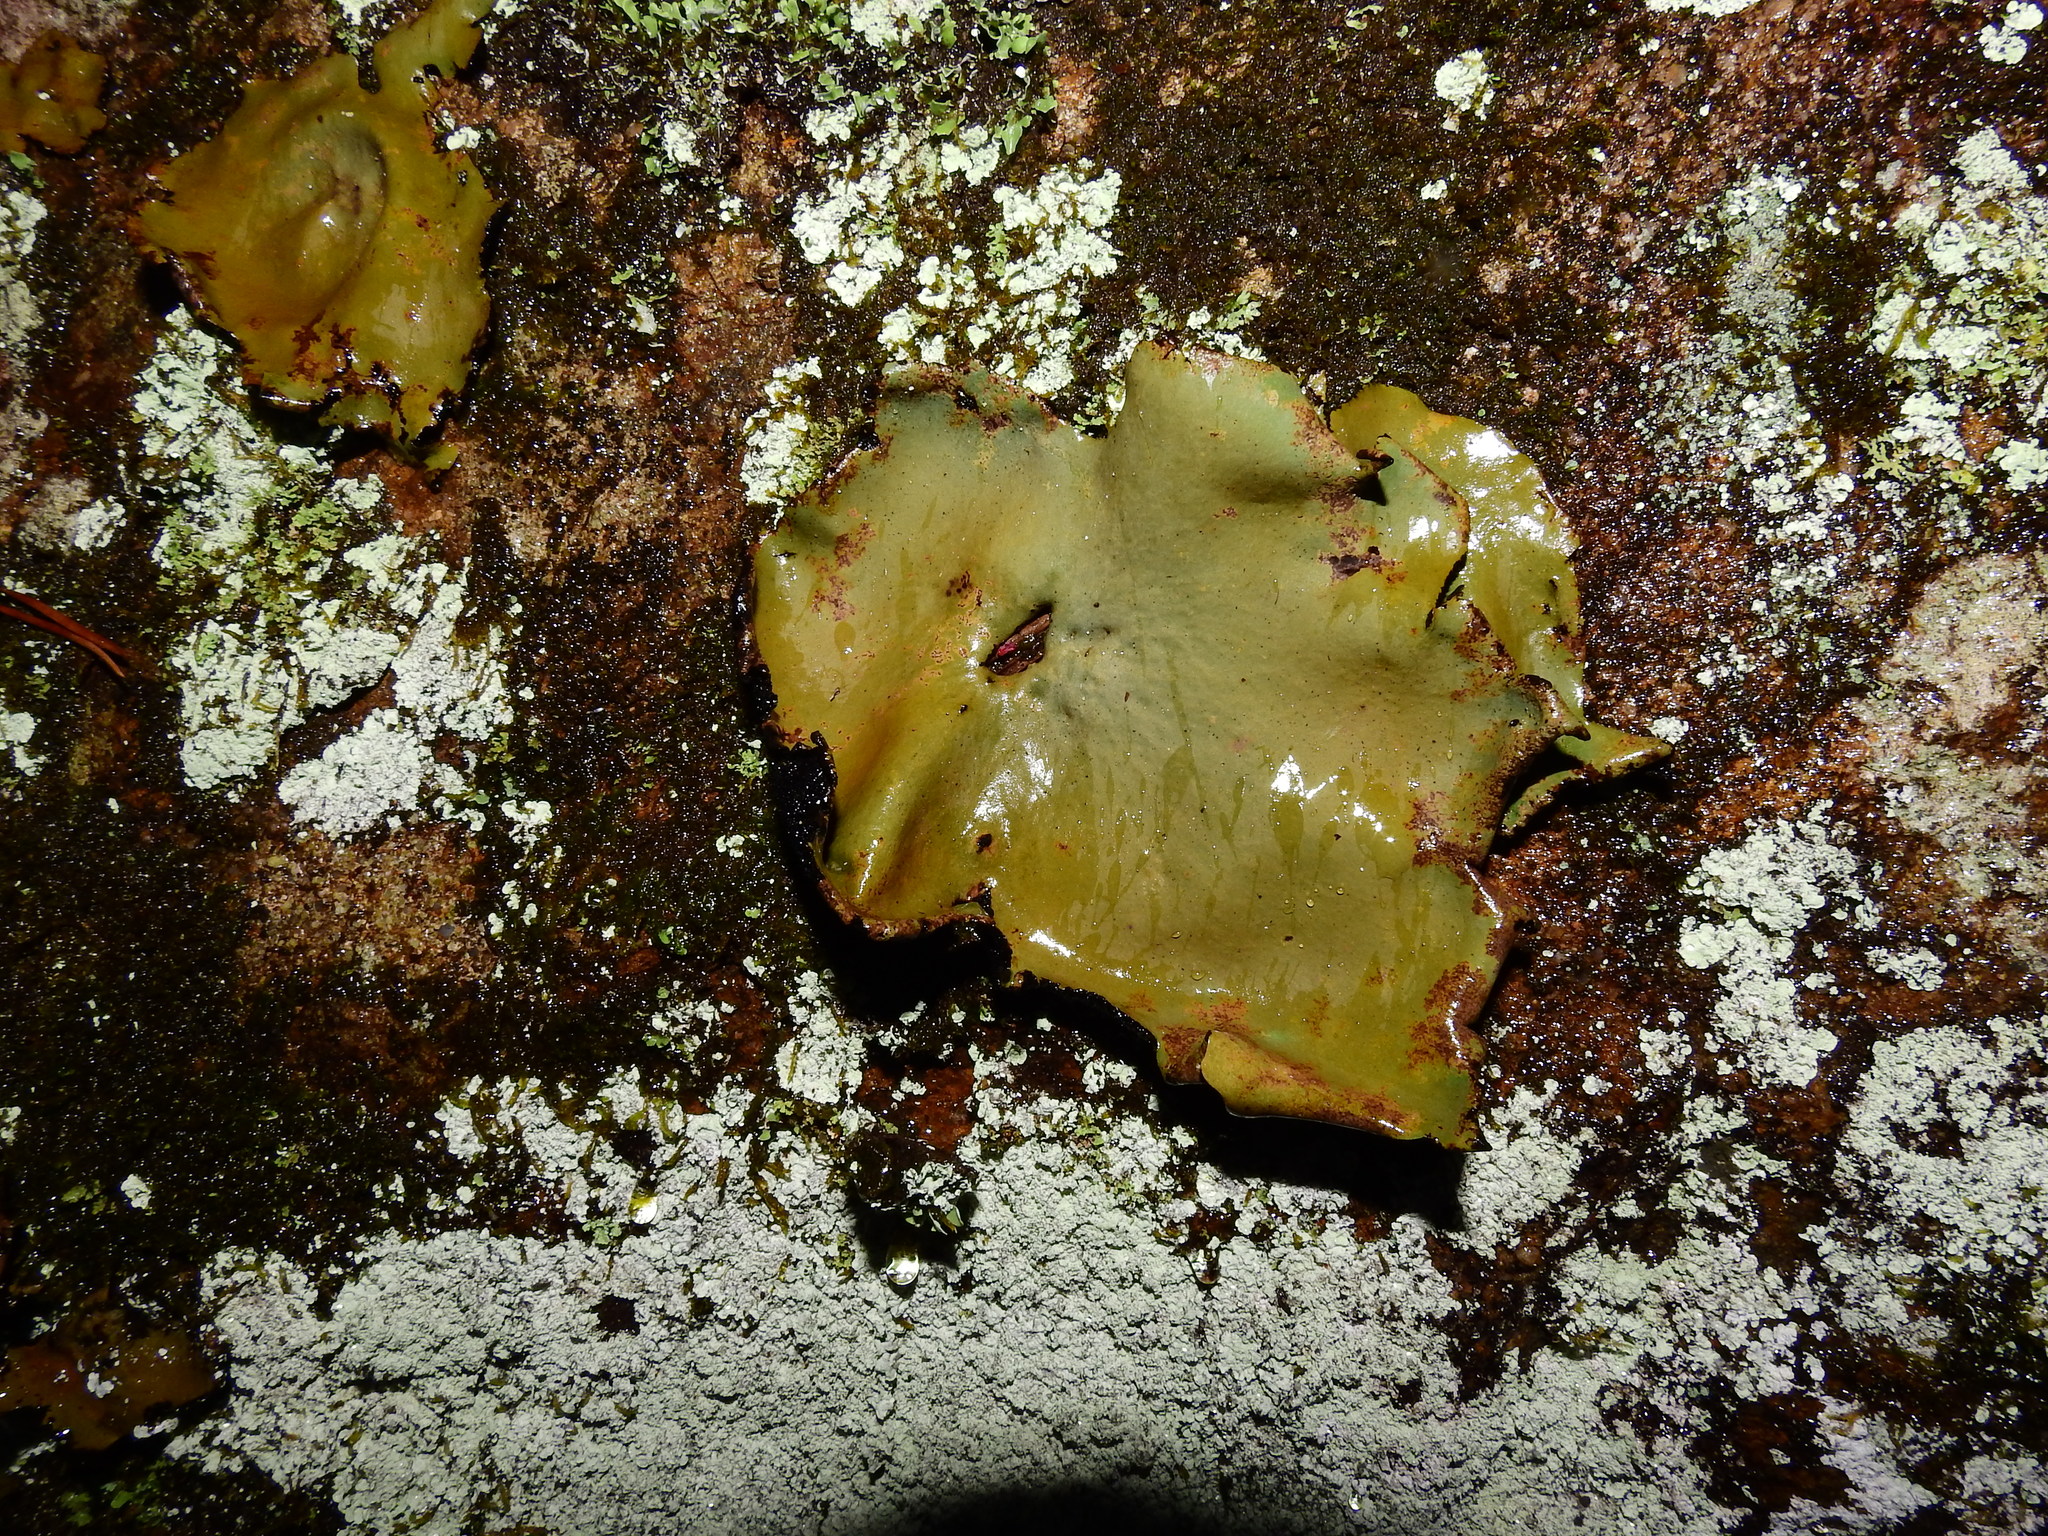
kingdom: Fungi
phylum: Ascomycota
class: Lecanoromycetes
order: Umbilicariales
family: Umbilicariaceae
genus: Umbilicaria
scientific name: Umbilicaria mammulata
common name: Smooth rock tripe
